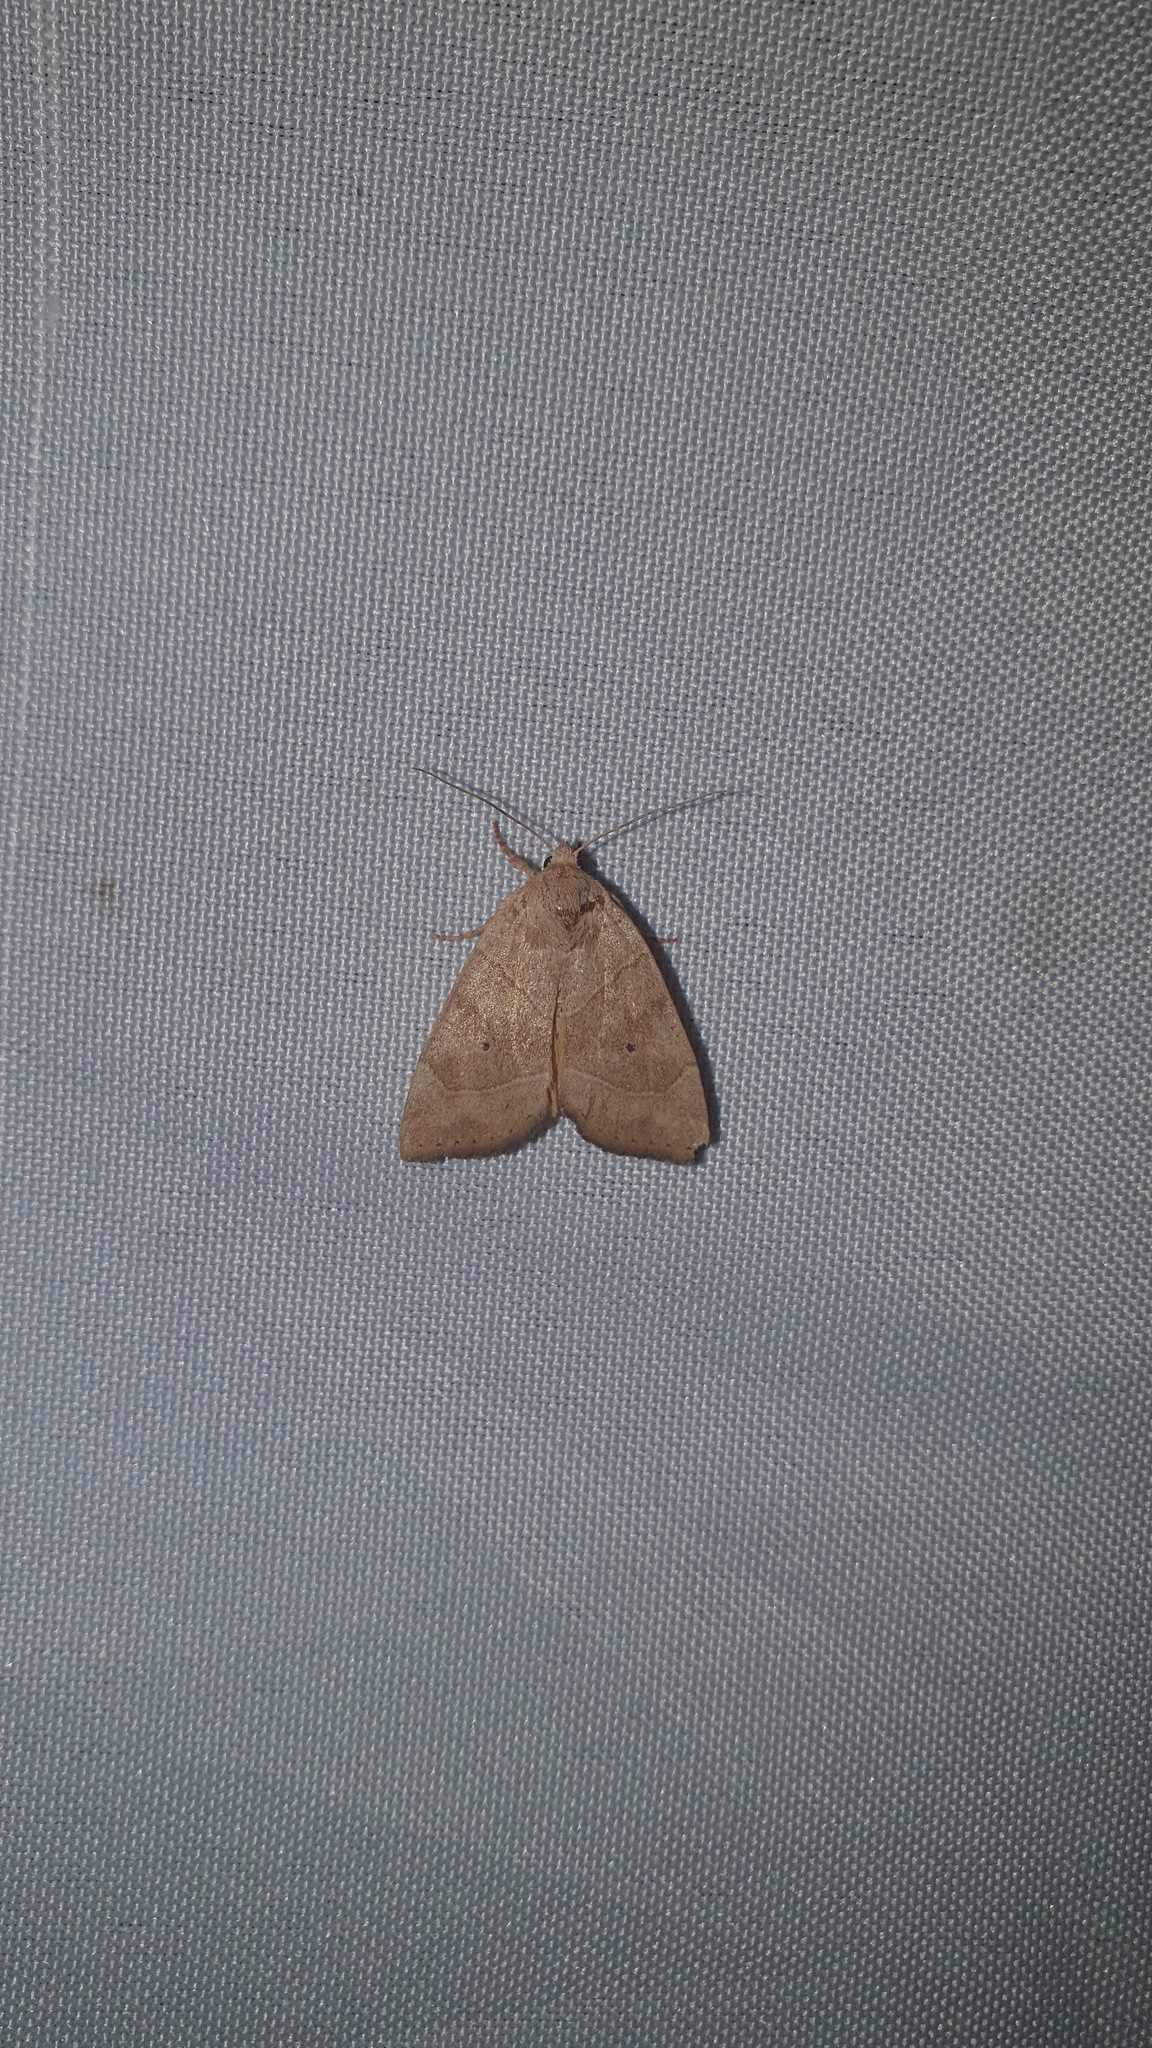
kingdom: Animalia
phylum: Arthropoda
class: Insecta
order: Lepidoptera
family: Noctuidae
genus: Cosmia
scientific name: Cosmia trapezina
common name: Dun-bar
